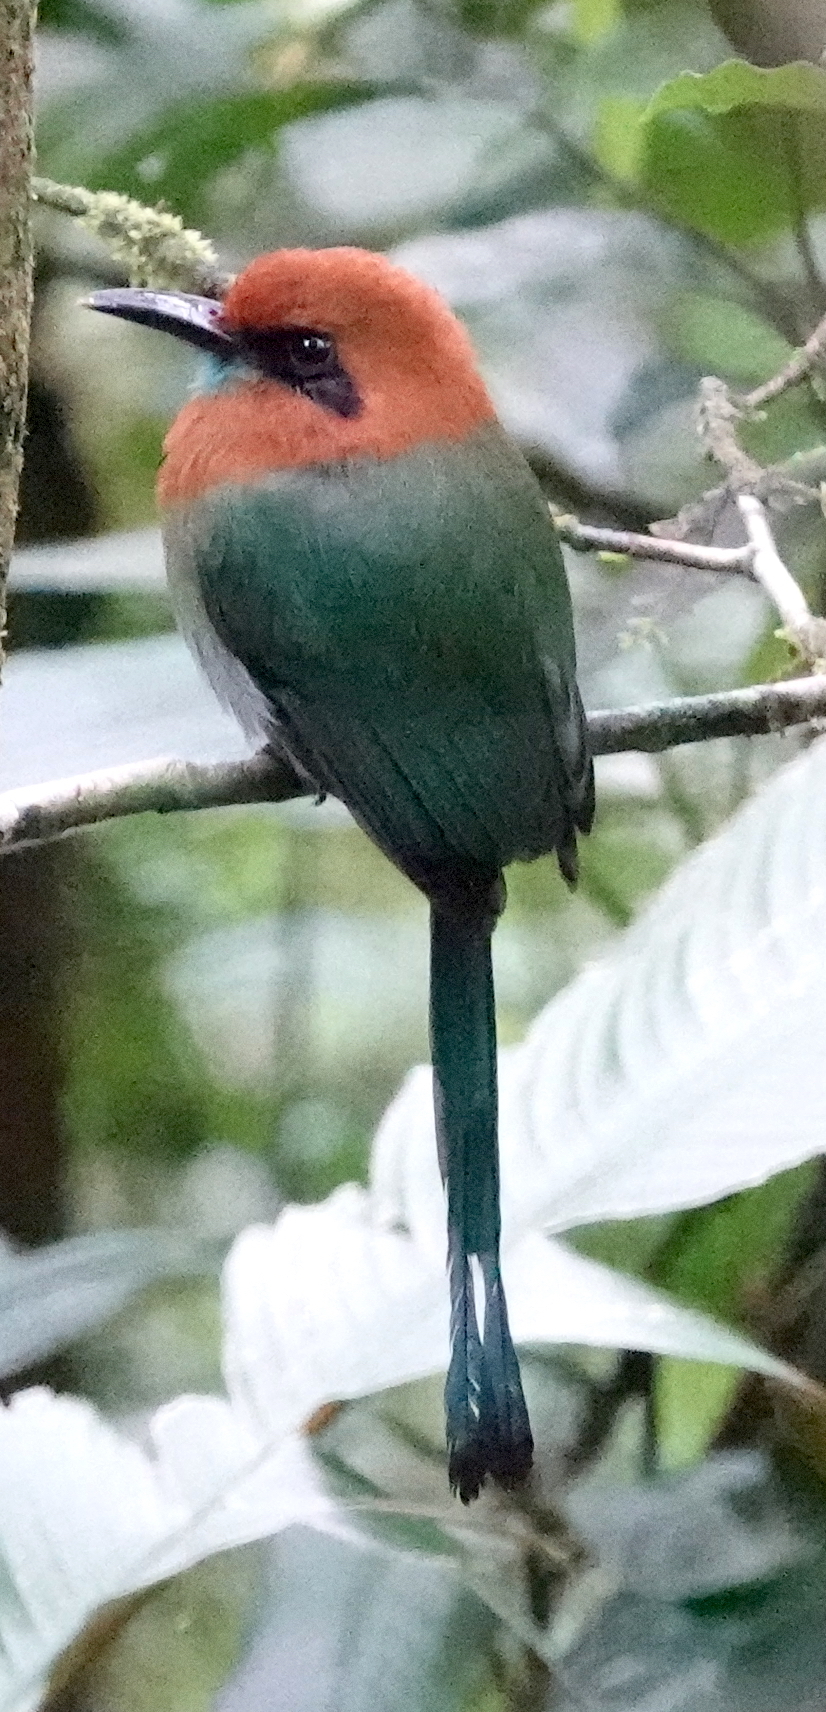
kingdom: Animalia
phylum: Chordata
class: Aves
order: Coraciiformes
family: Momotidae
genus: Electron
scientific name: Electron platyrhynchum
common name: Broad-billed motmot
